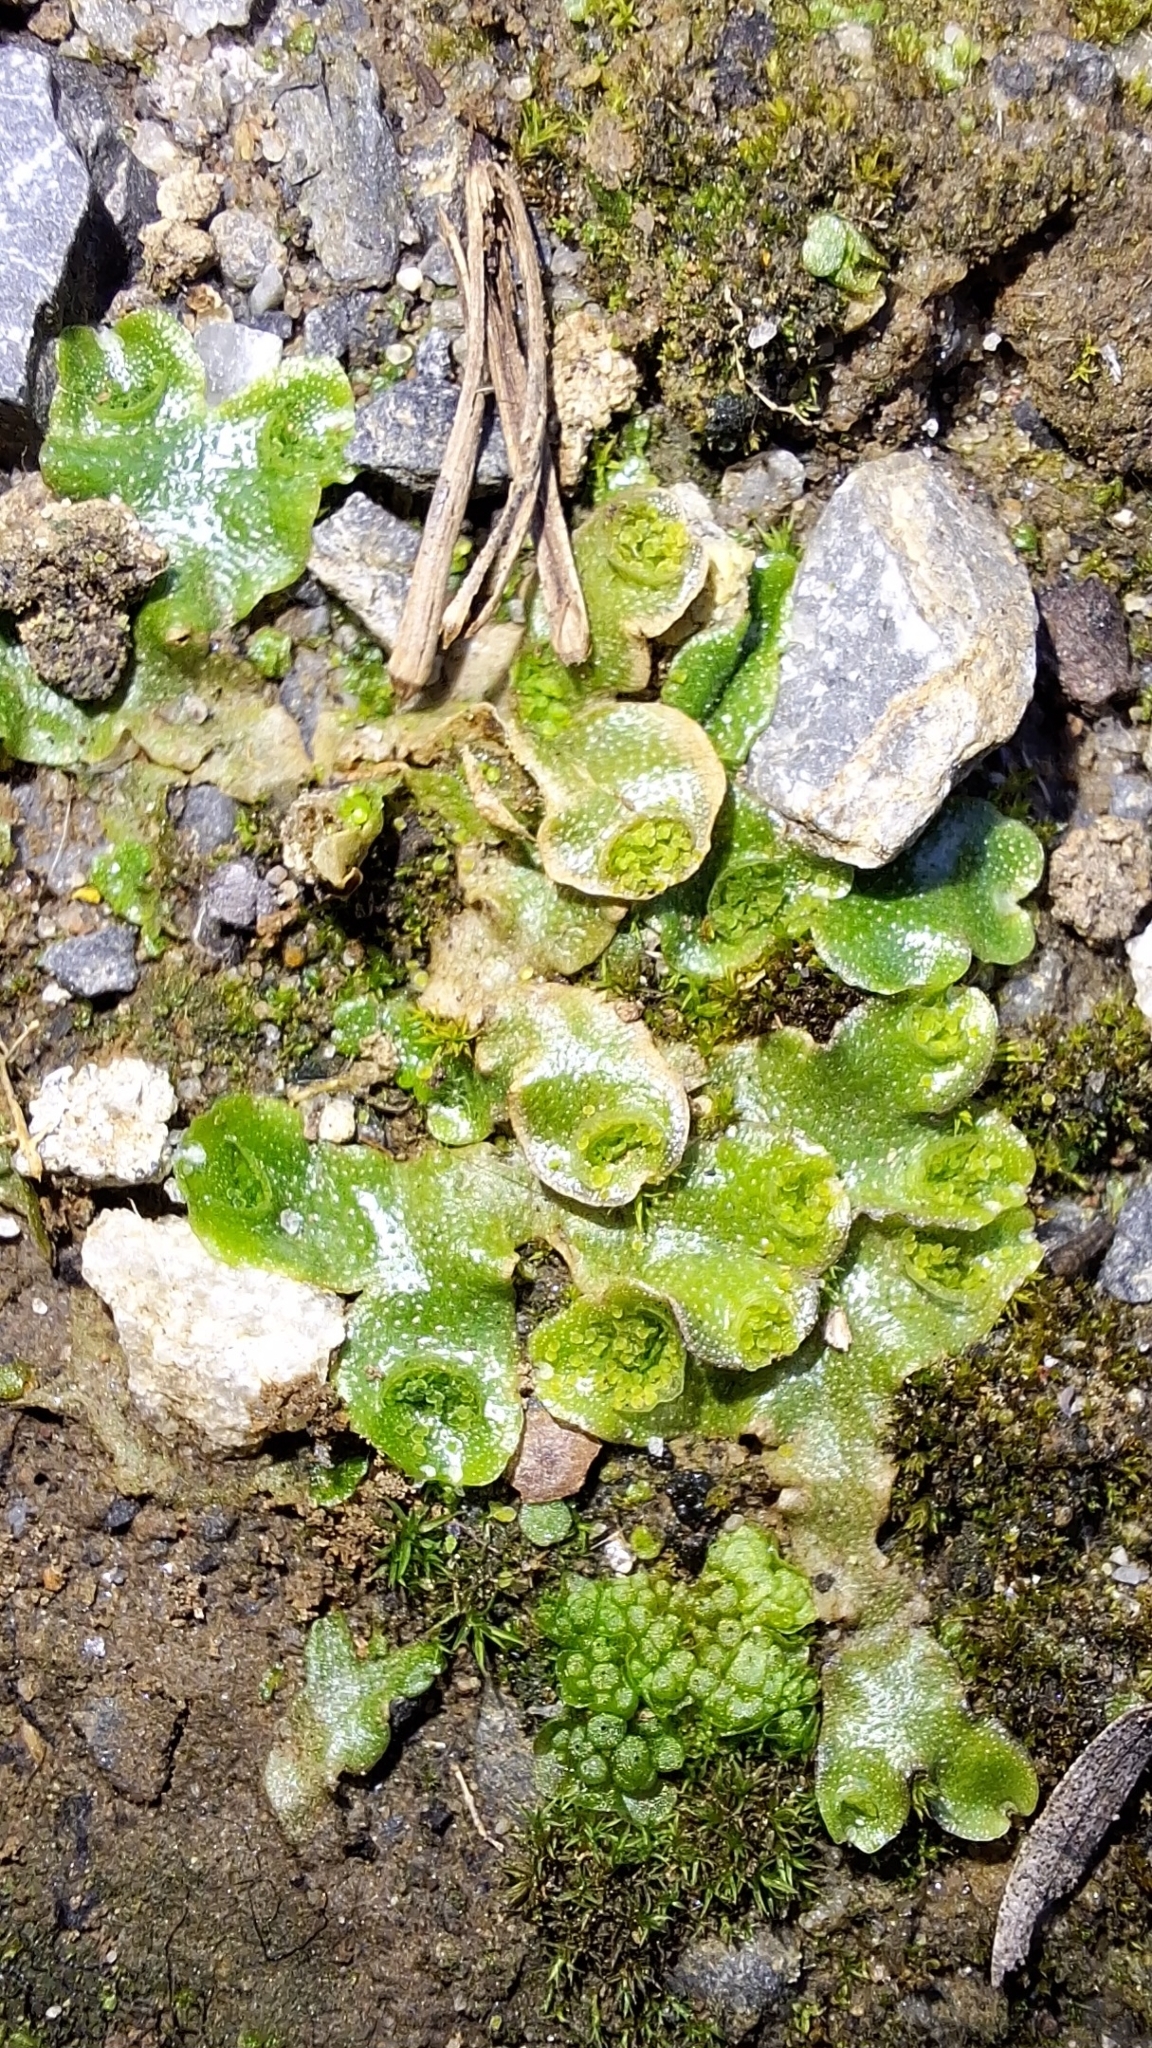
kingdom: Plantae
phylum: Marchantiophyta
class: Marchantiopsida
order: Lunulariales
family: Lunulariaceae
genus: Lunularia
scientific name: Lunularia cruciata
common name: Crescent-cup liverwort
